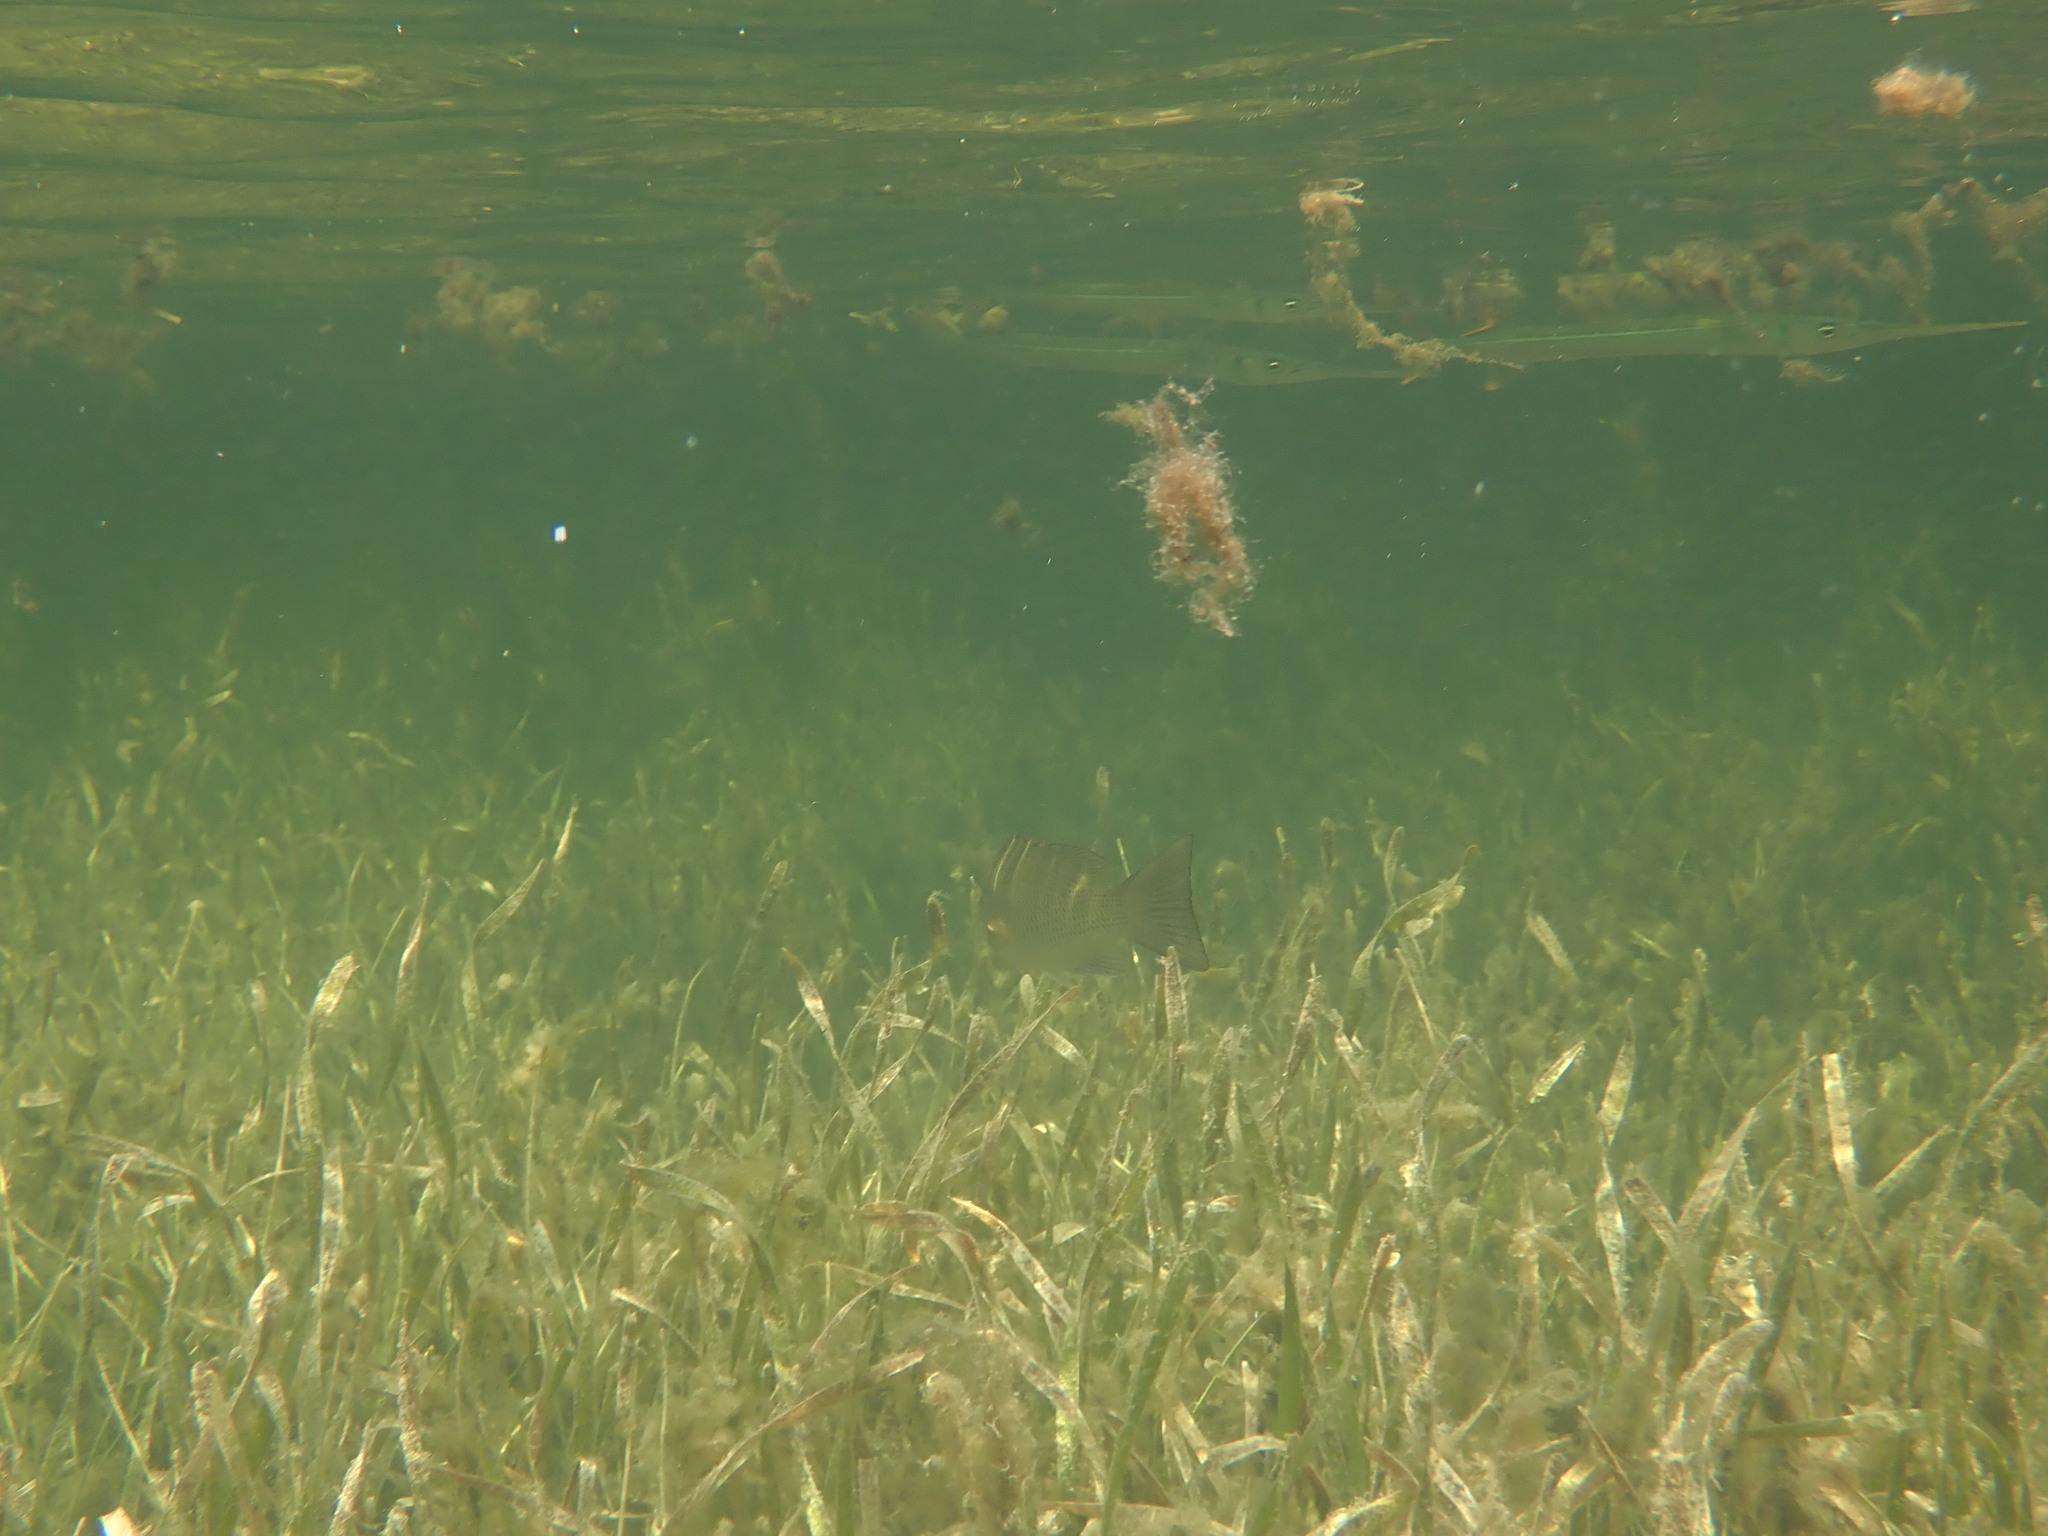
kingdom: Animalia
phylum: Chordata
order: Perciformes
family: Lutjanidae
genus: Lutjanus
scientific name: Lutjanus griseus
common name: Gray snapper
